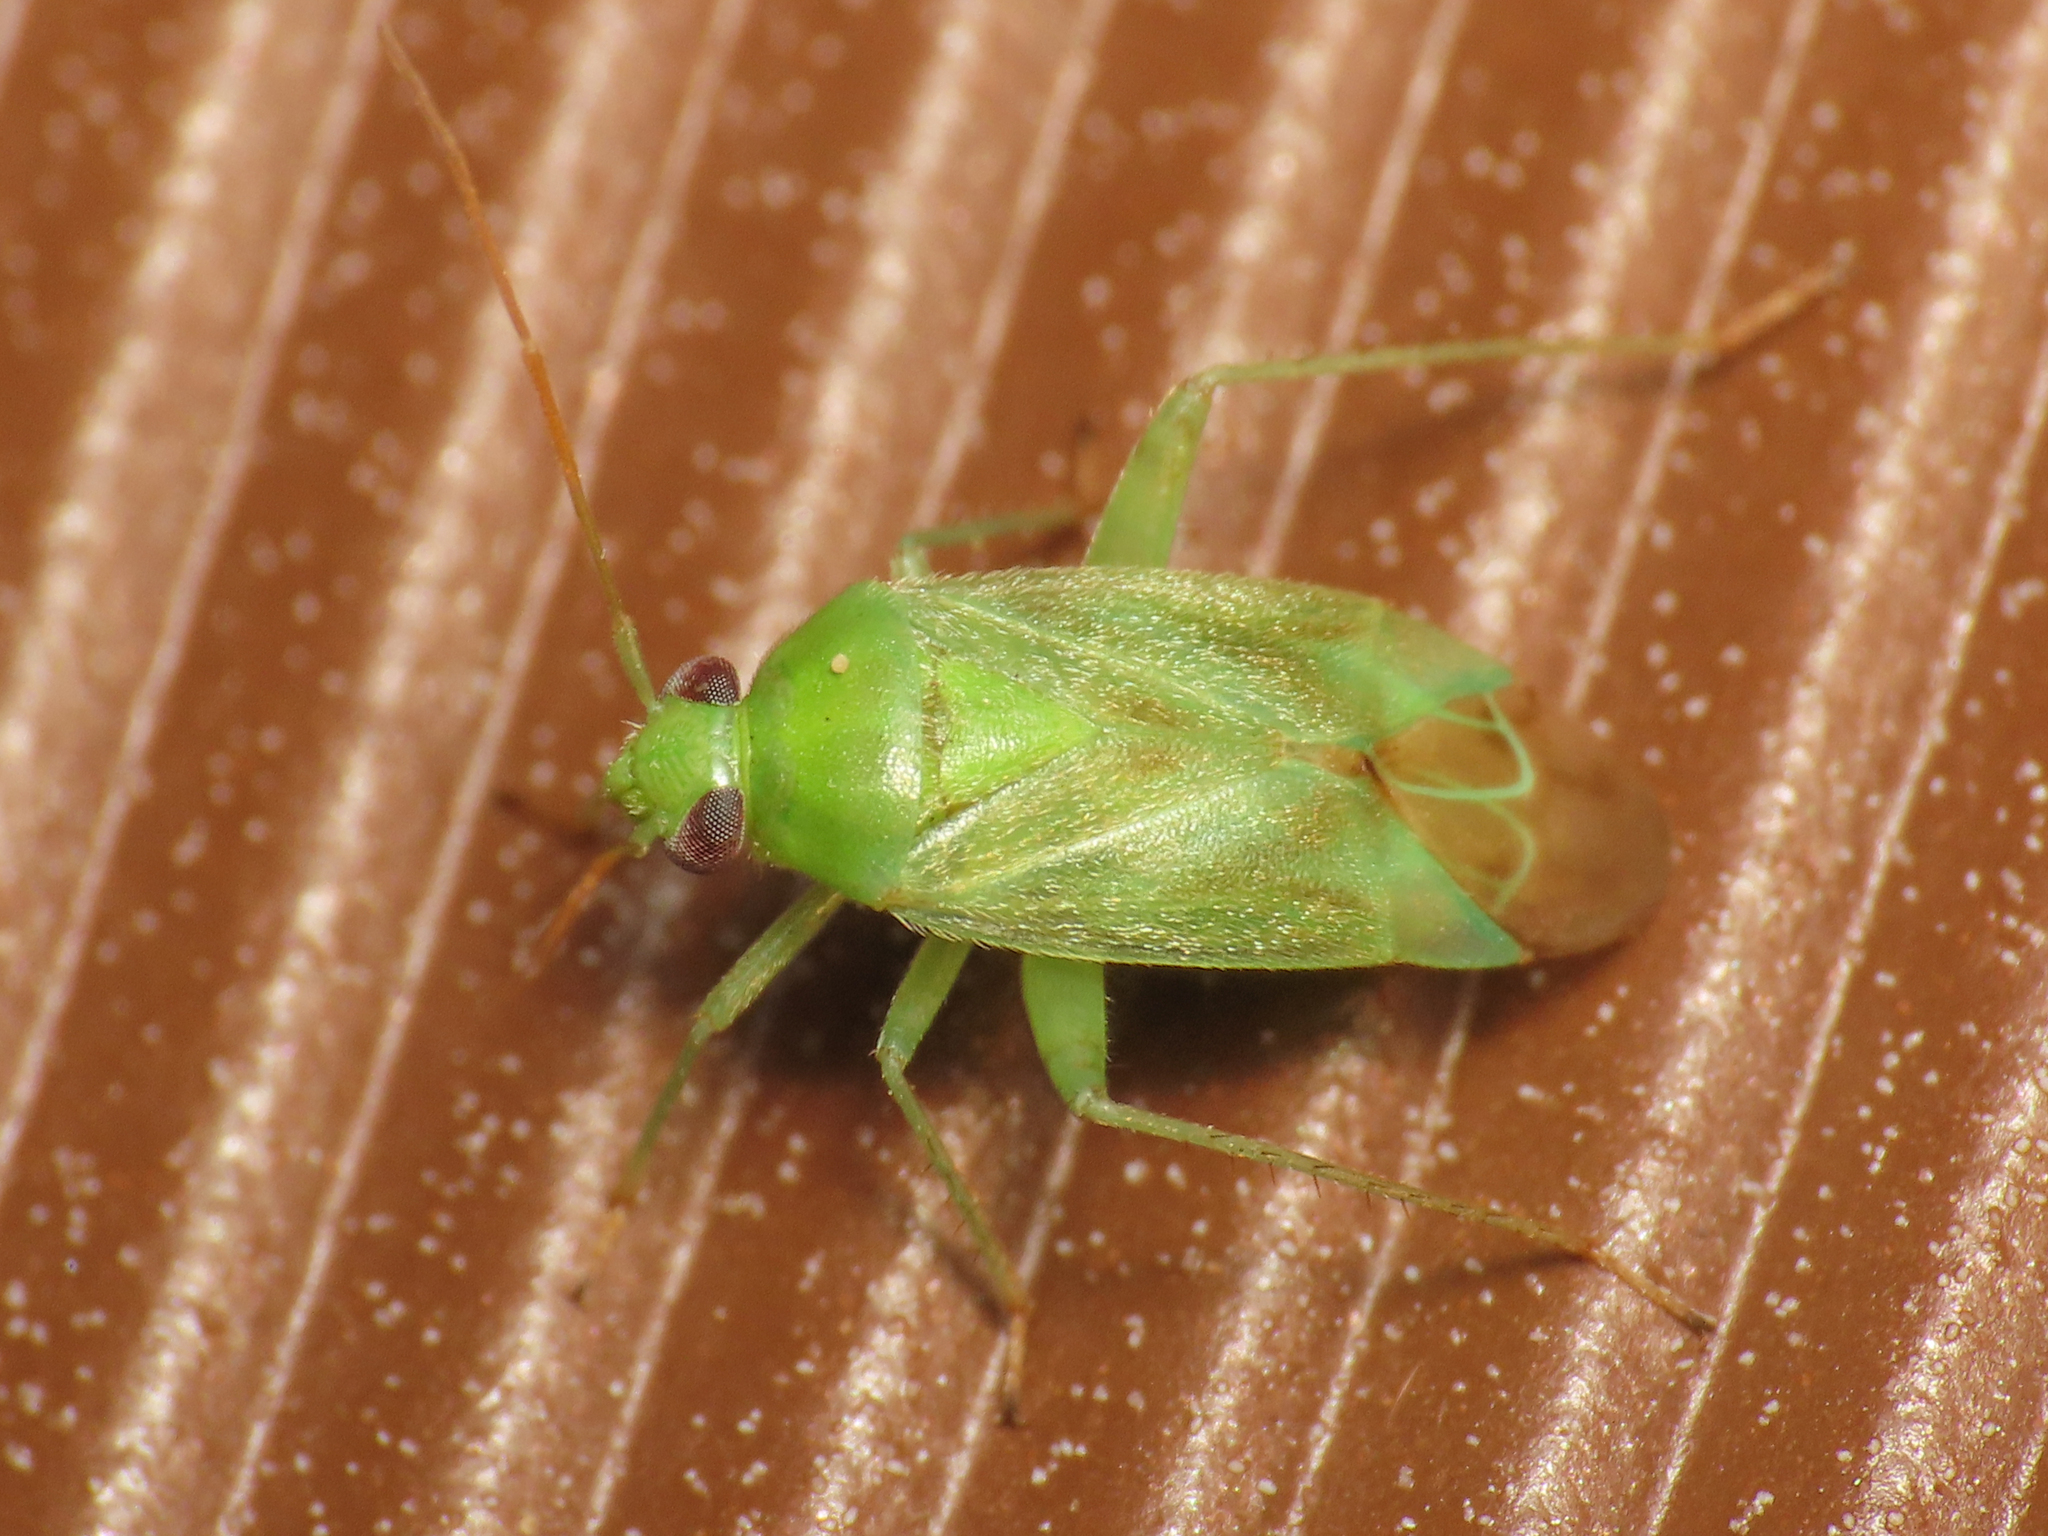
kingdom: Animalia
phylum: Arthropoda
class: Insecta
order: Hemiptera
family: Miridae
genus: Taylorilygus
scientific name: Taylorilygus apicalis
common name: Plant bug
